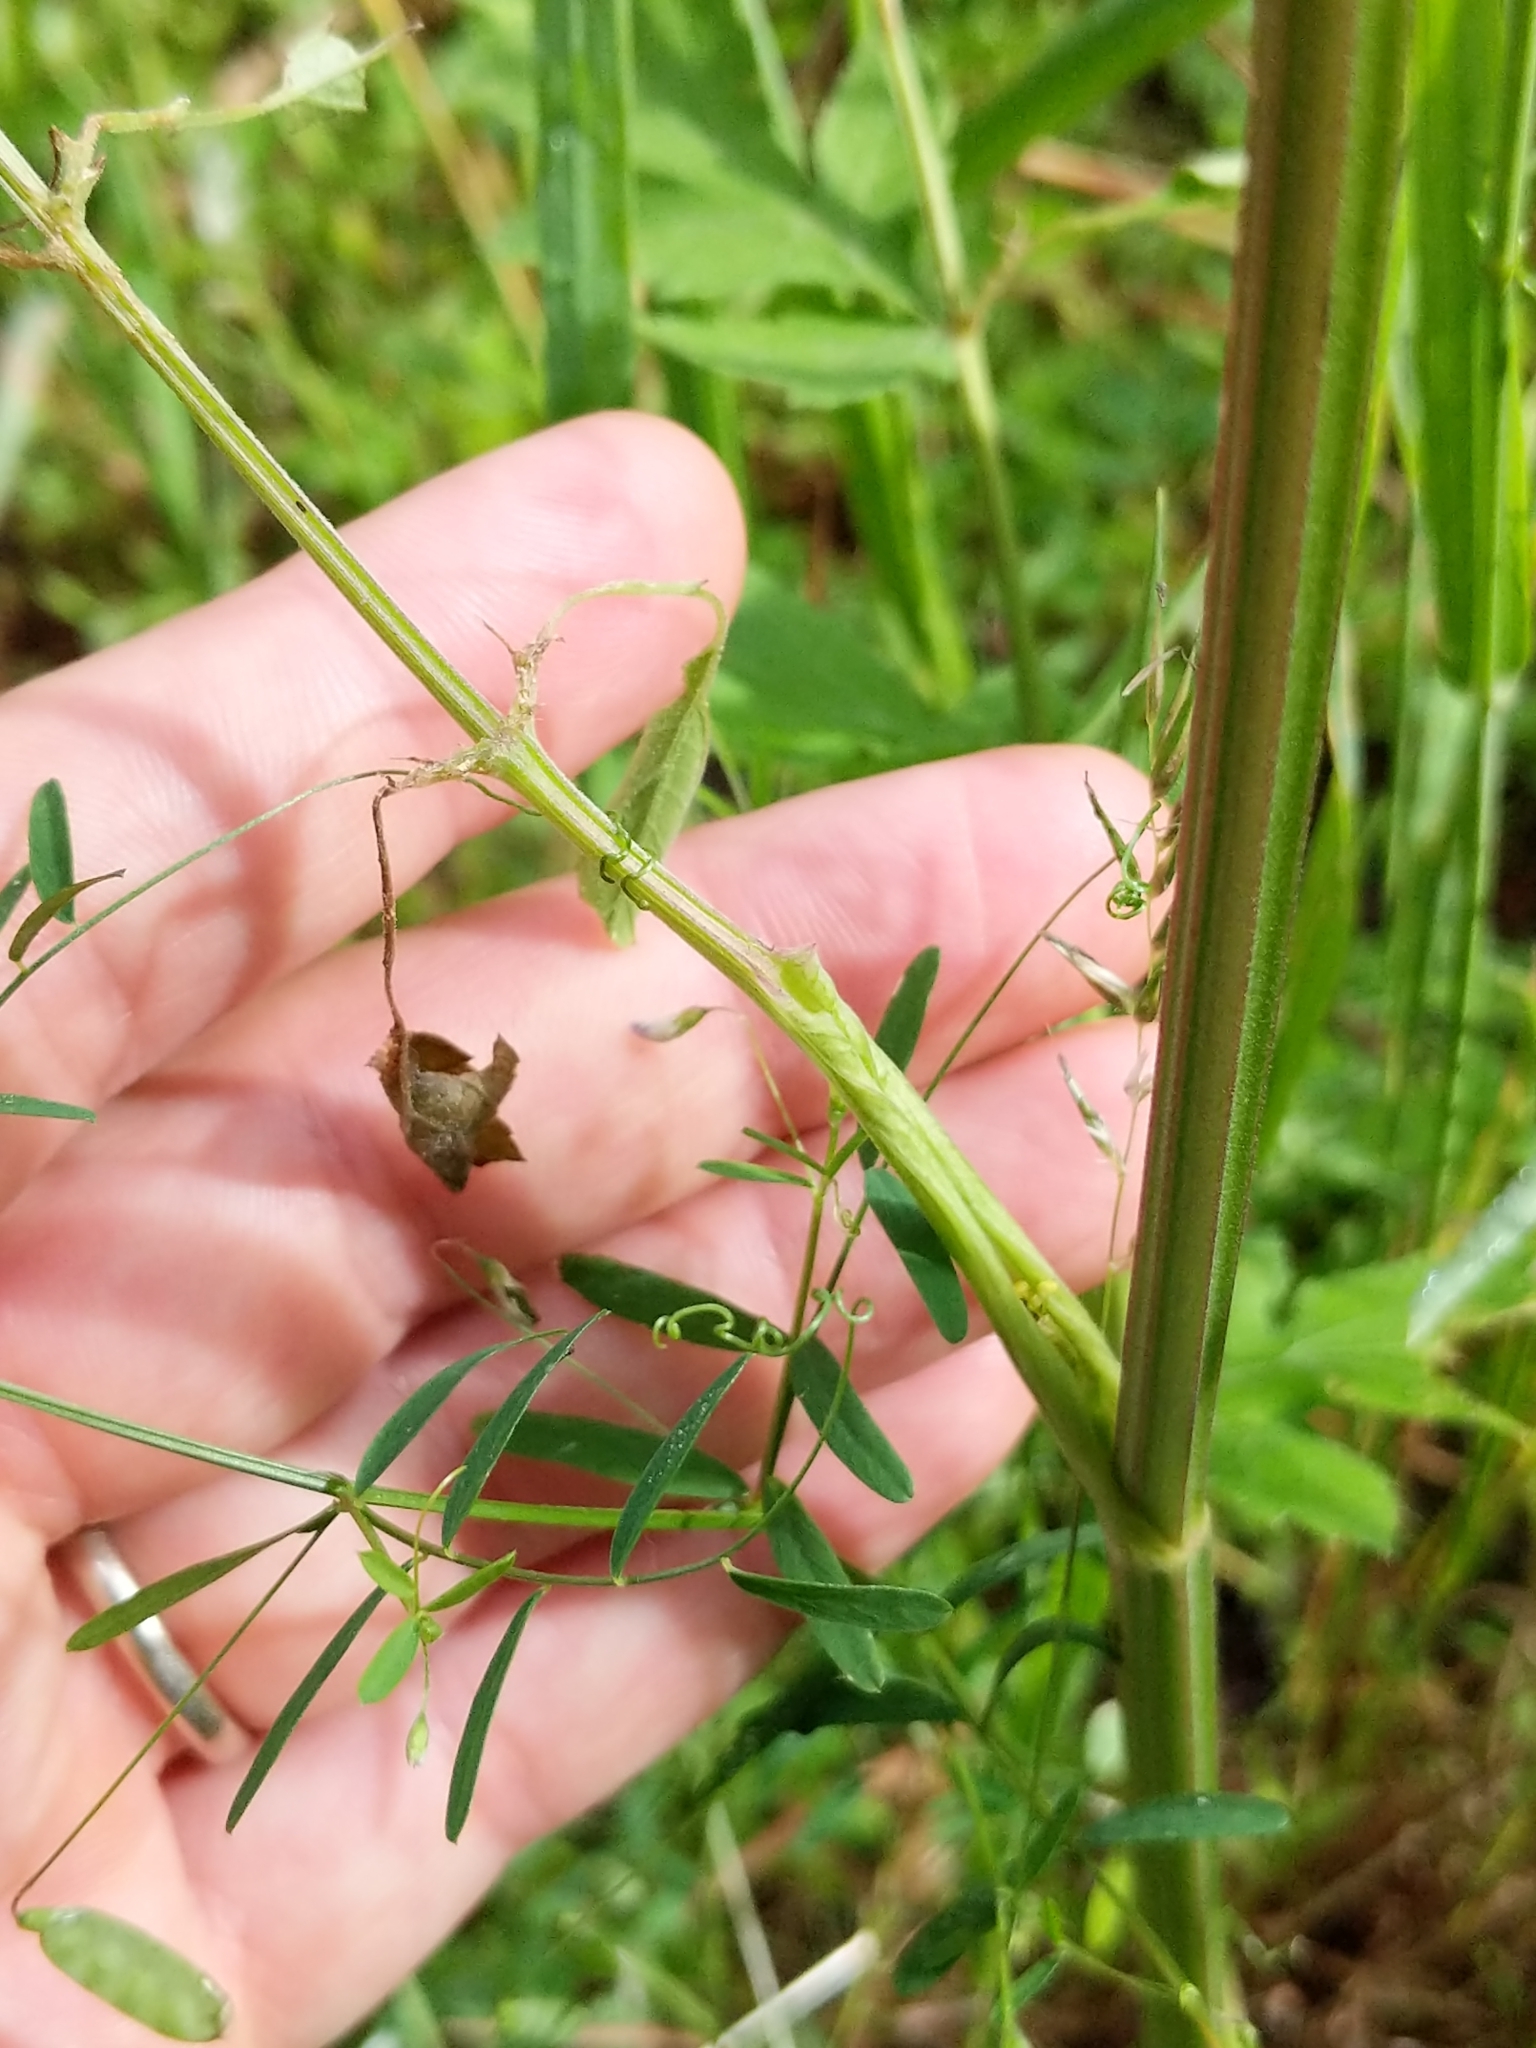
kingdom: Plantae
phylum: Tracheophyta
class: Magnoliopsida
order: Fabales
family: Fabaceae
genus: Vicia
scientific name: Vicia tetrasperma
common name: Smooth tare
